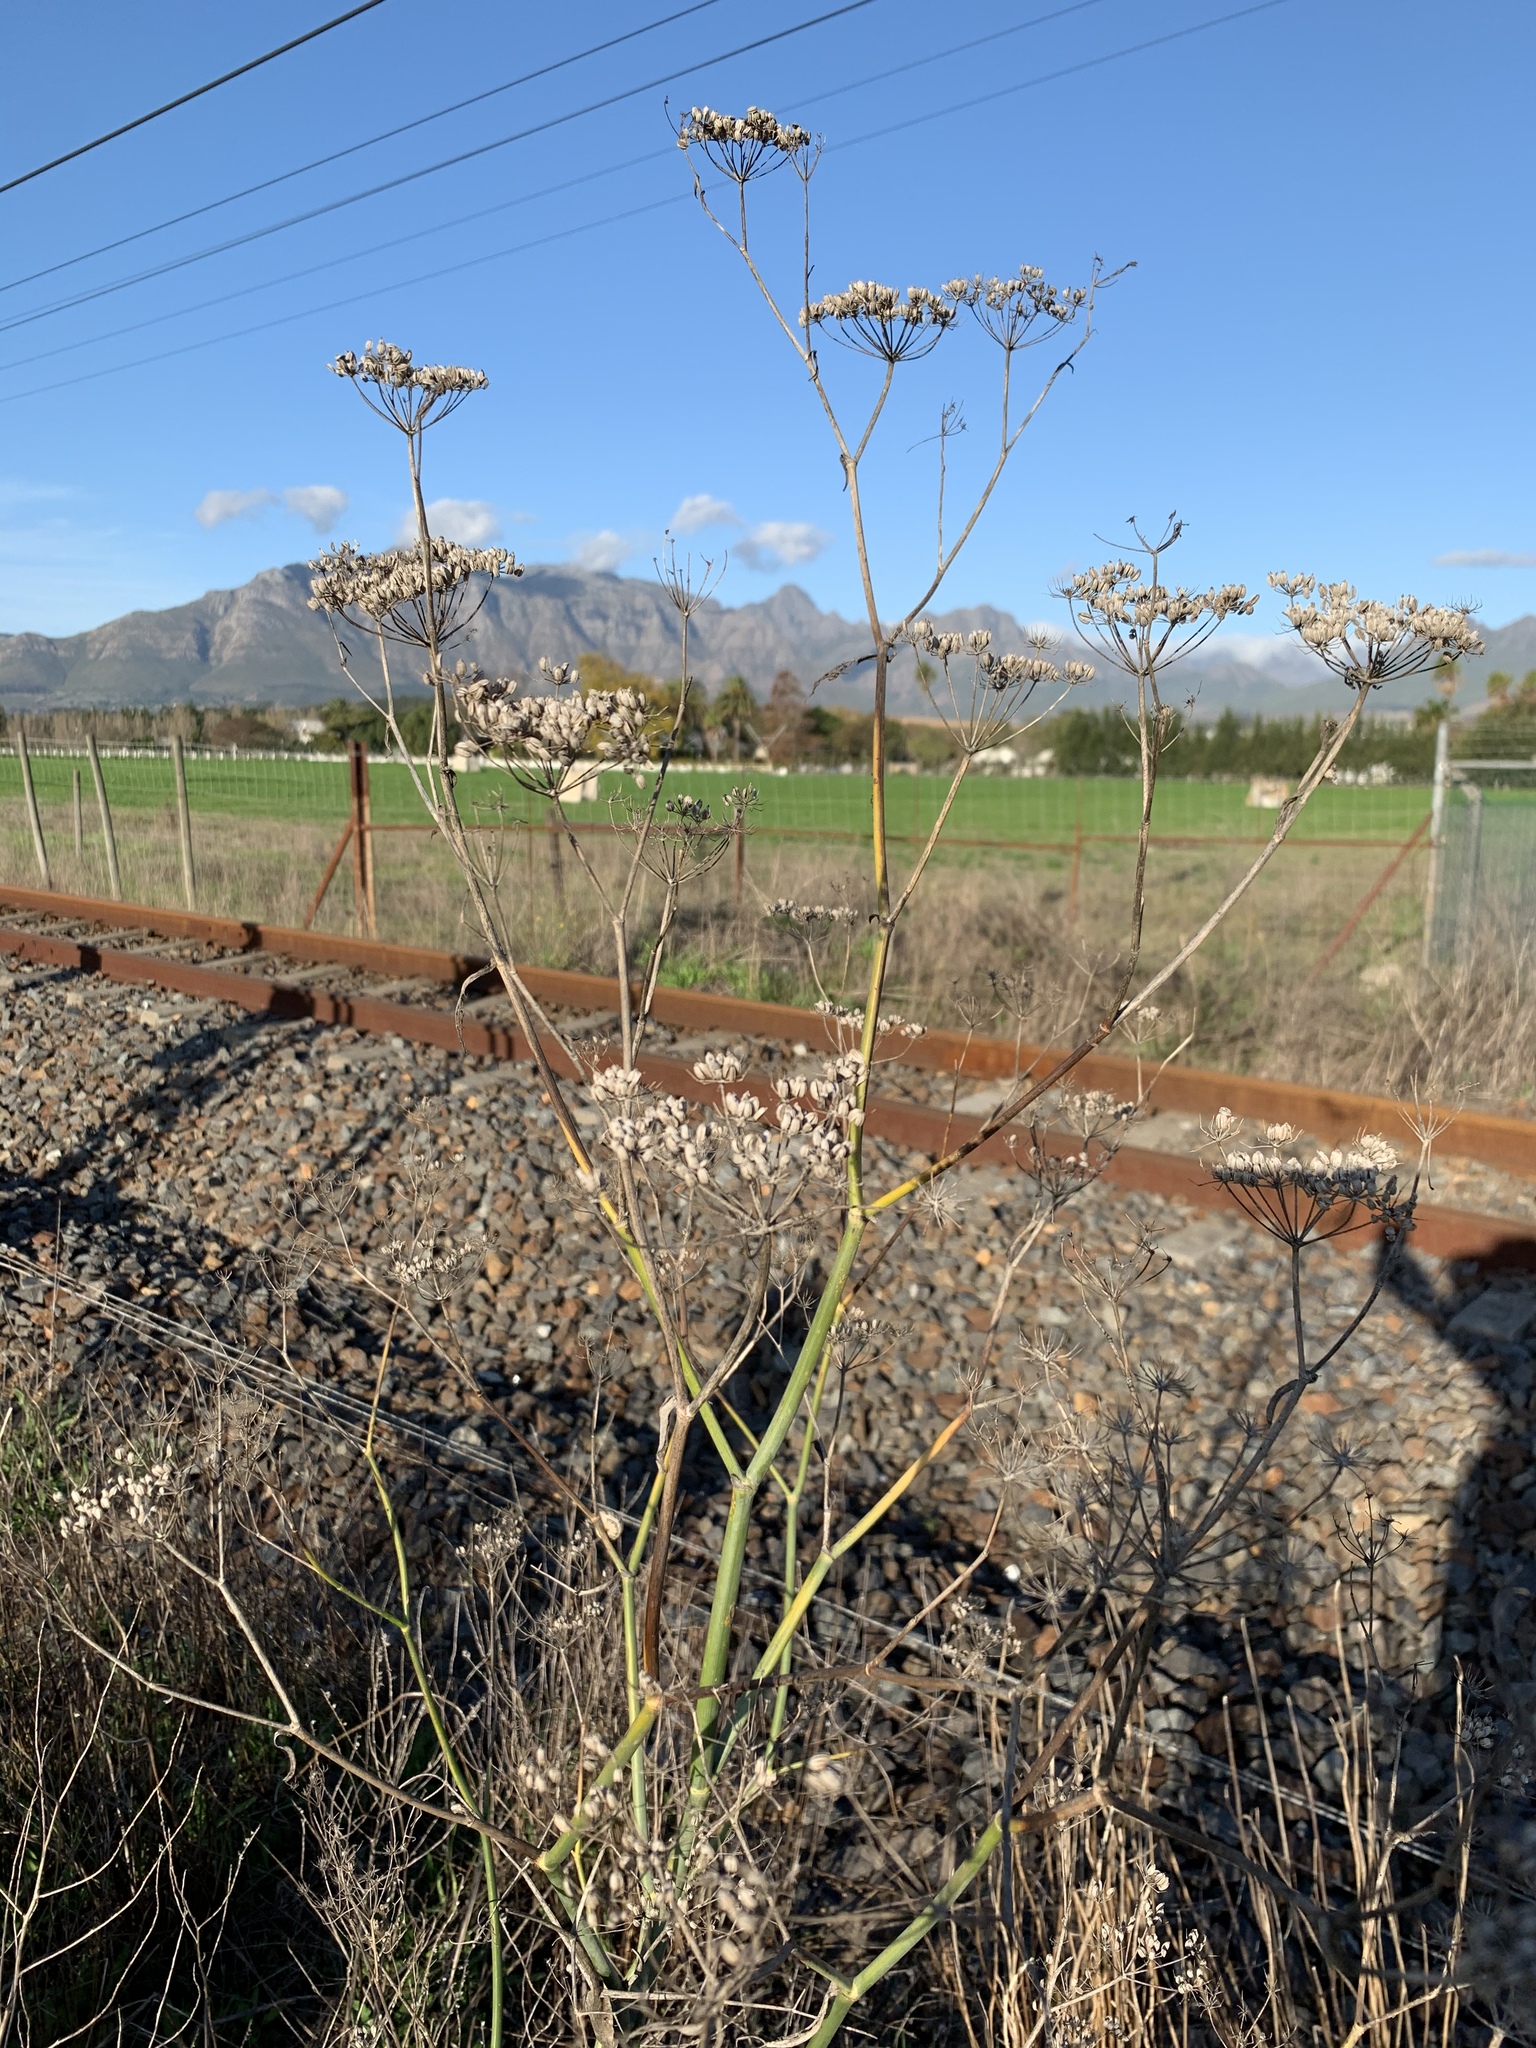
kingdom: Plantae
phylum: Tracheophyta
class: Magnoliopsida
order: Apiales
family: Apiaceae
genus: Foeniculum
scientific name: Foeniculum vulgare
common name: Fennel
